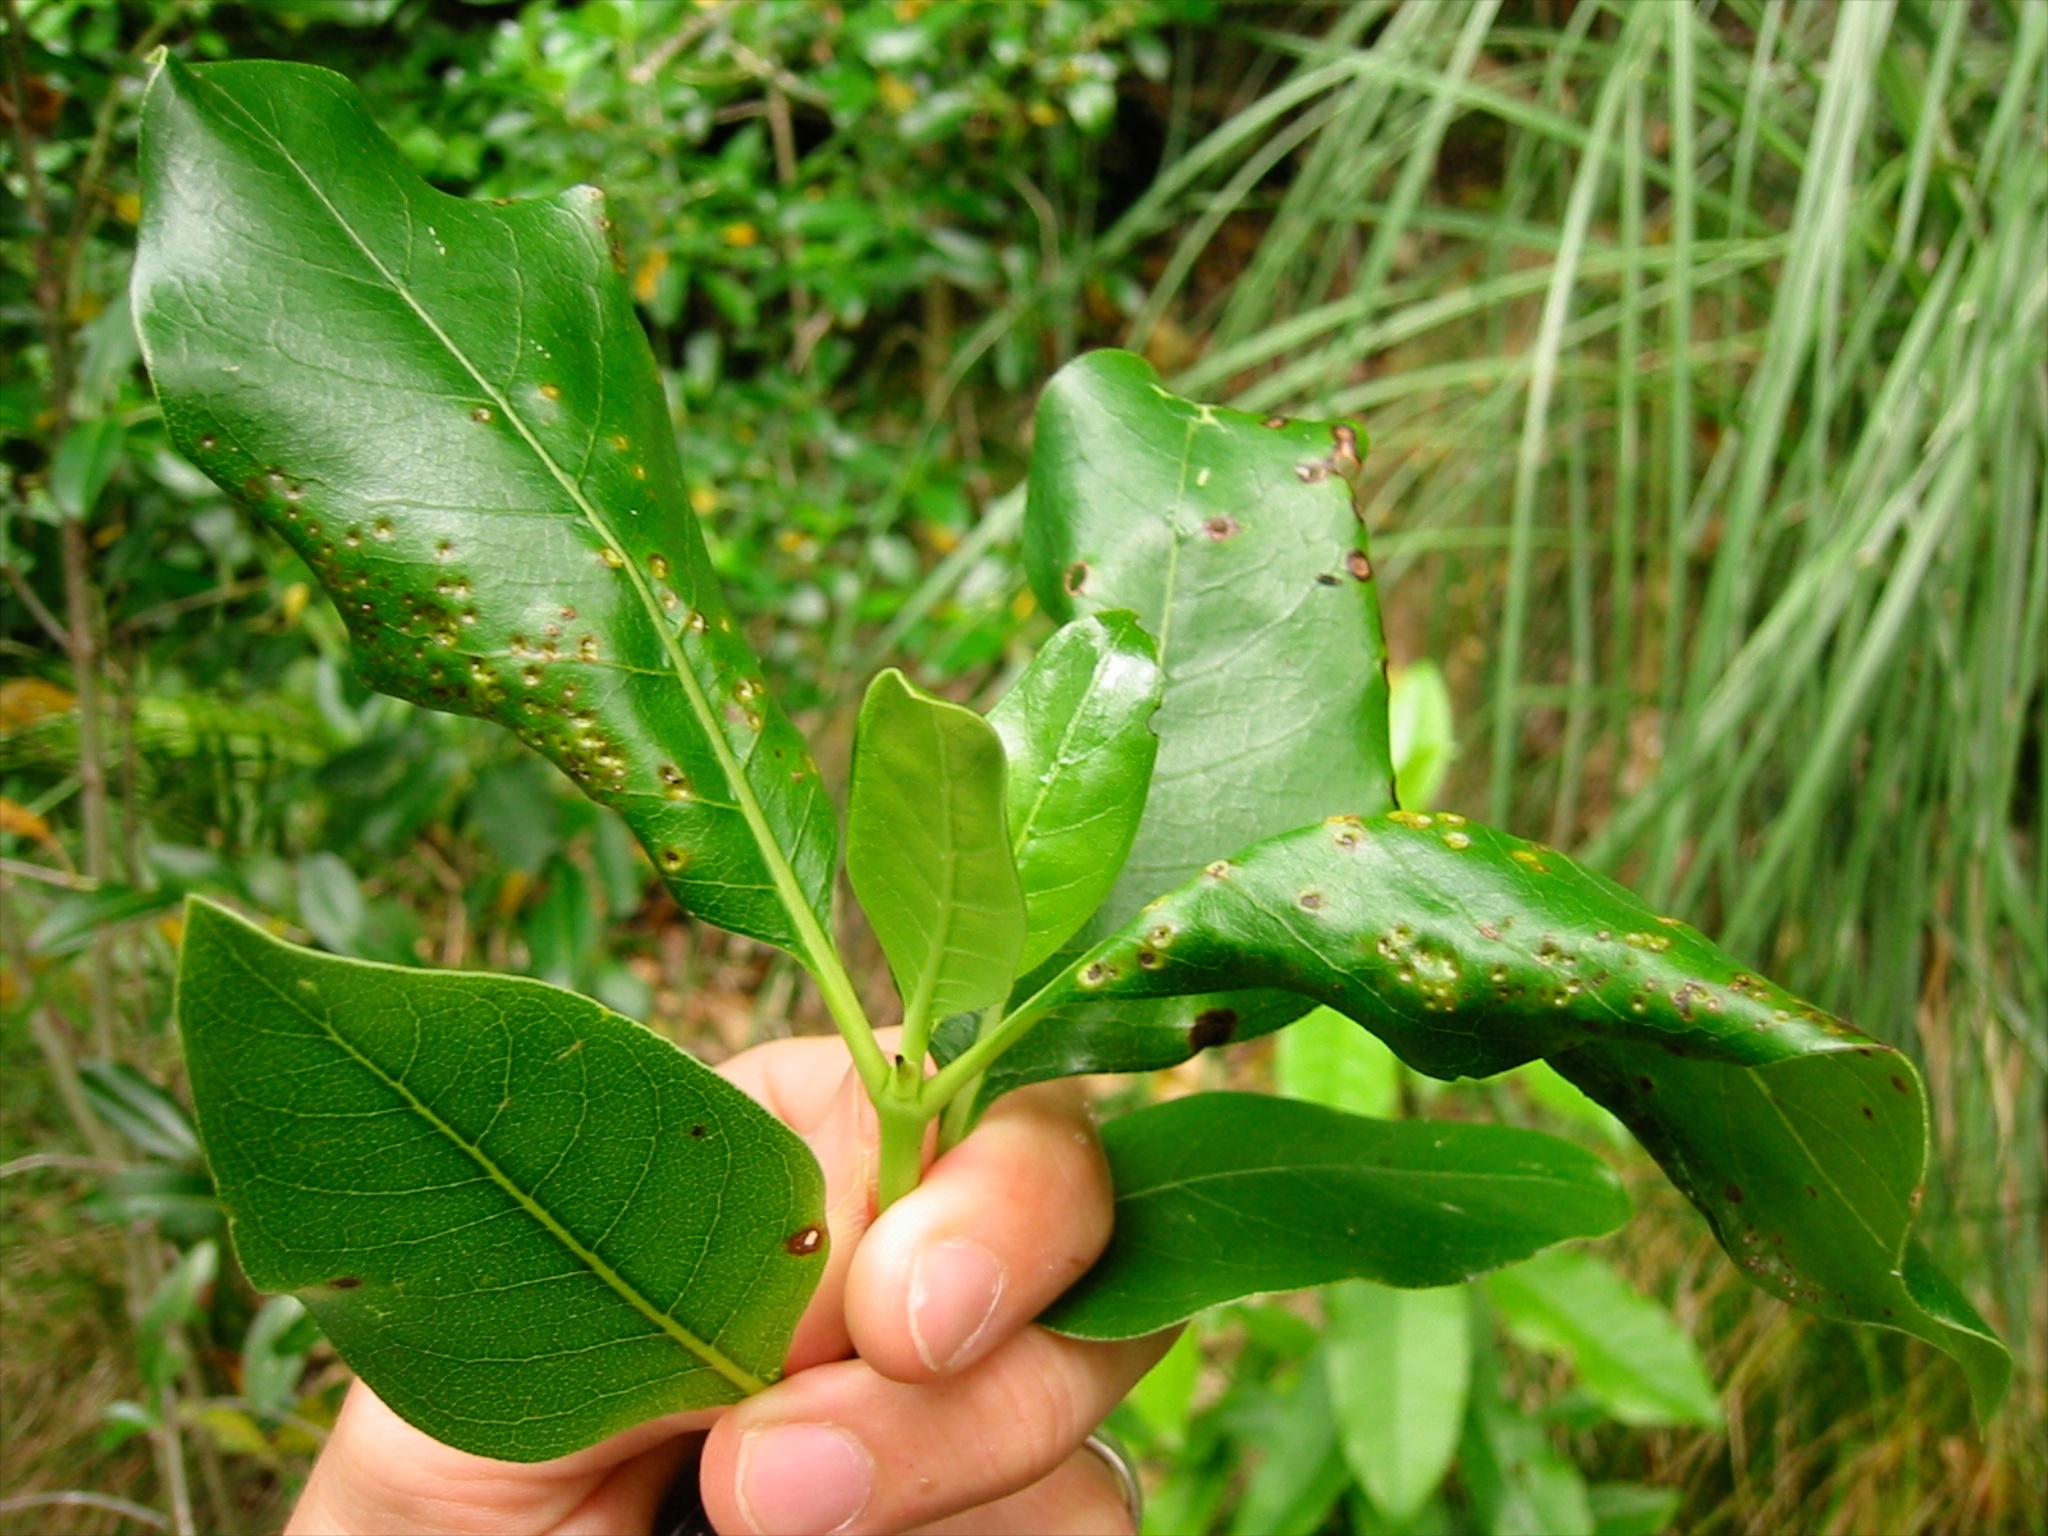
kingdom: Fungi
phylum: Basidiomycota
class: Pucciniomycetes
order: Pucciniales
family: Pucciniaceae
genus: Puccinia
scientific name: Puccinia coprosmae
